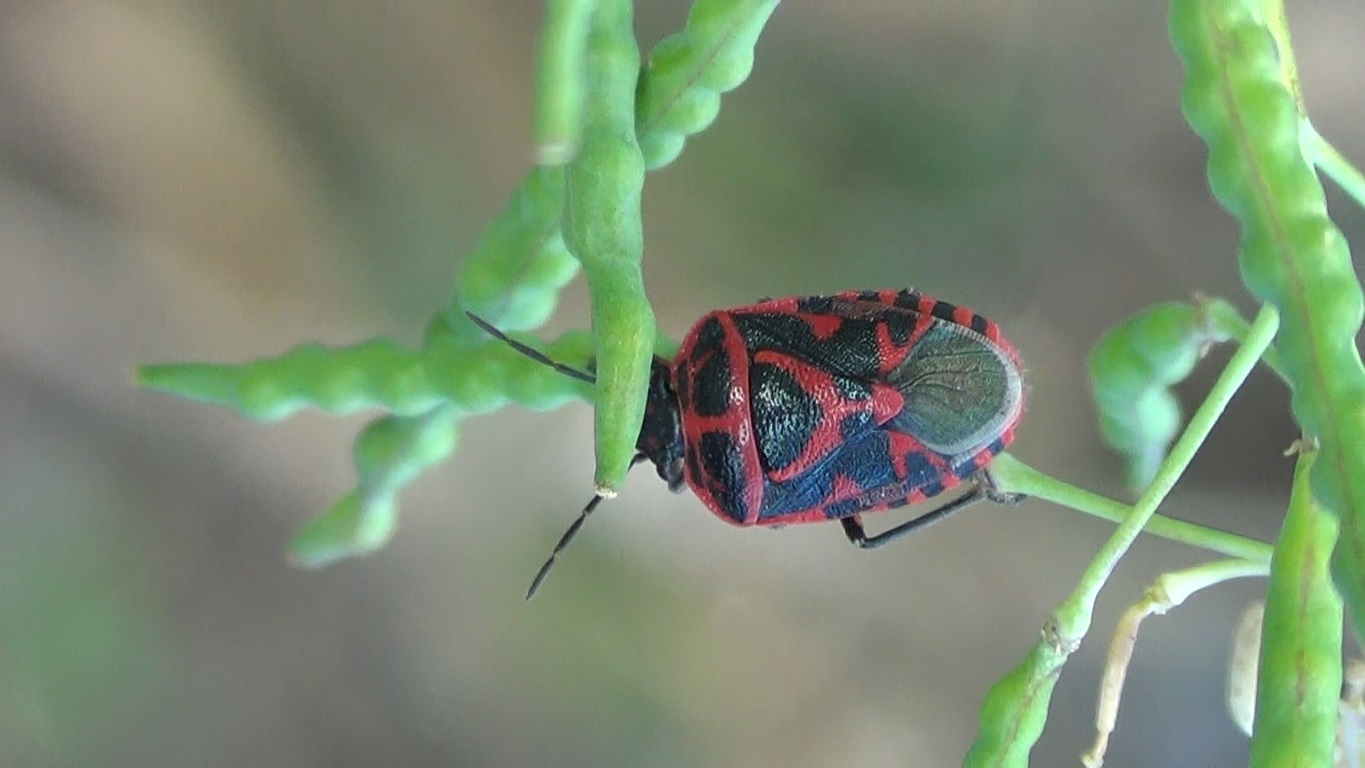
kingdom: Animalia
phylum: Arthropoda
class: Insecta
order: Hemiptera
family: Pentatomidae
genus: Eurydema
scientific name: Eurydema ornata
